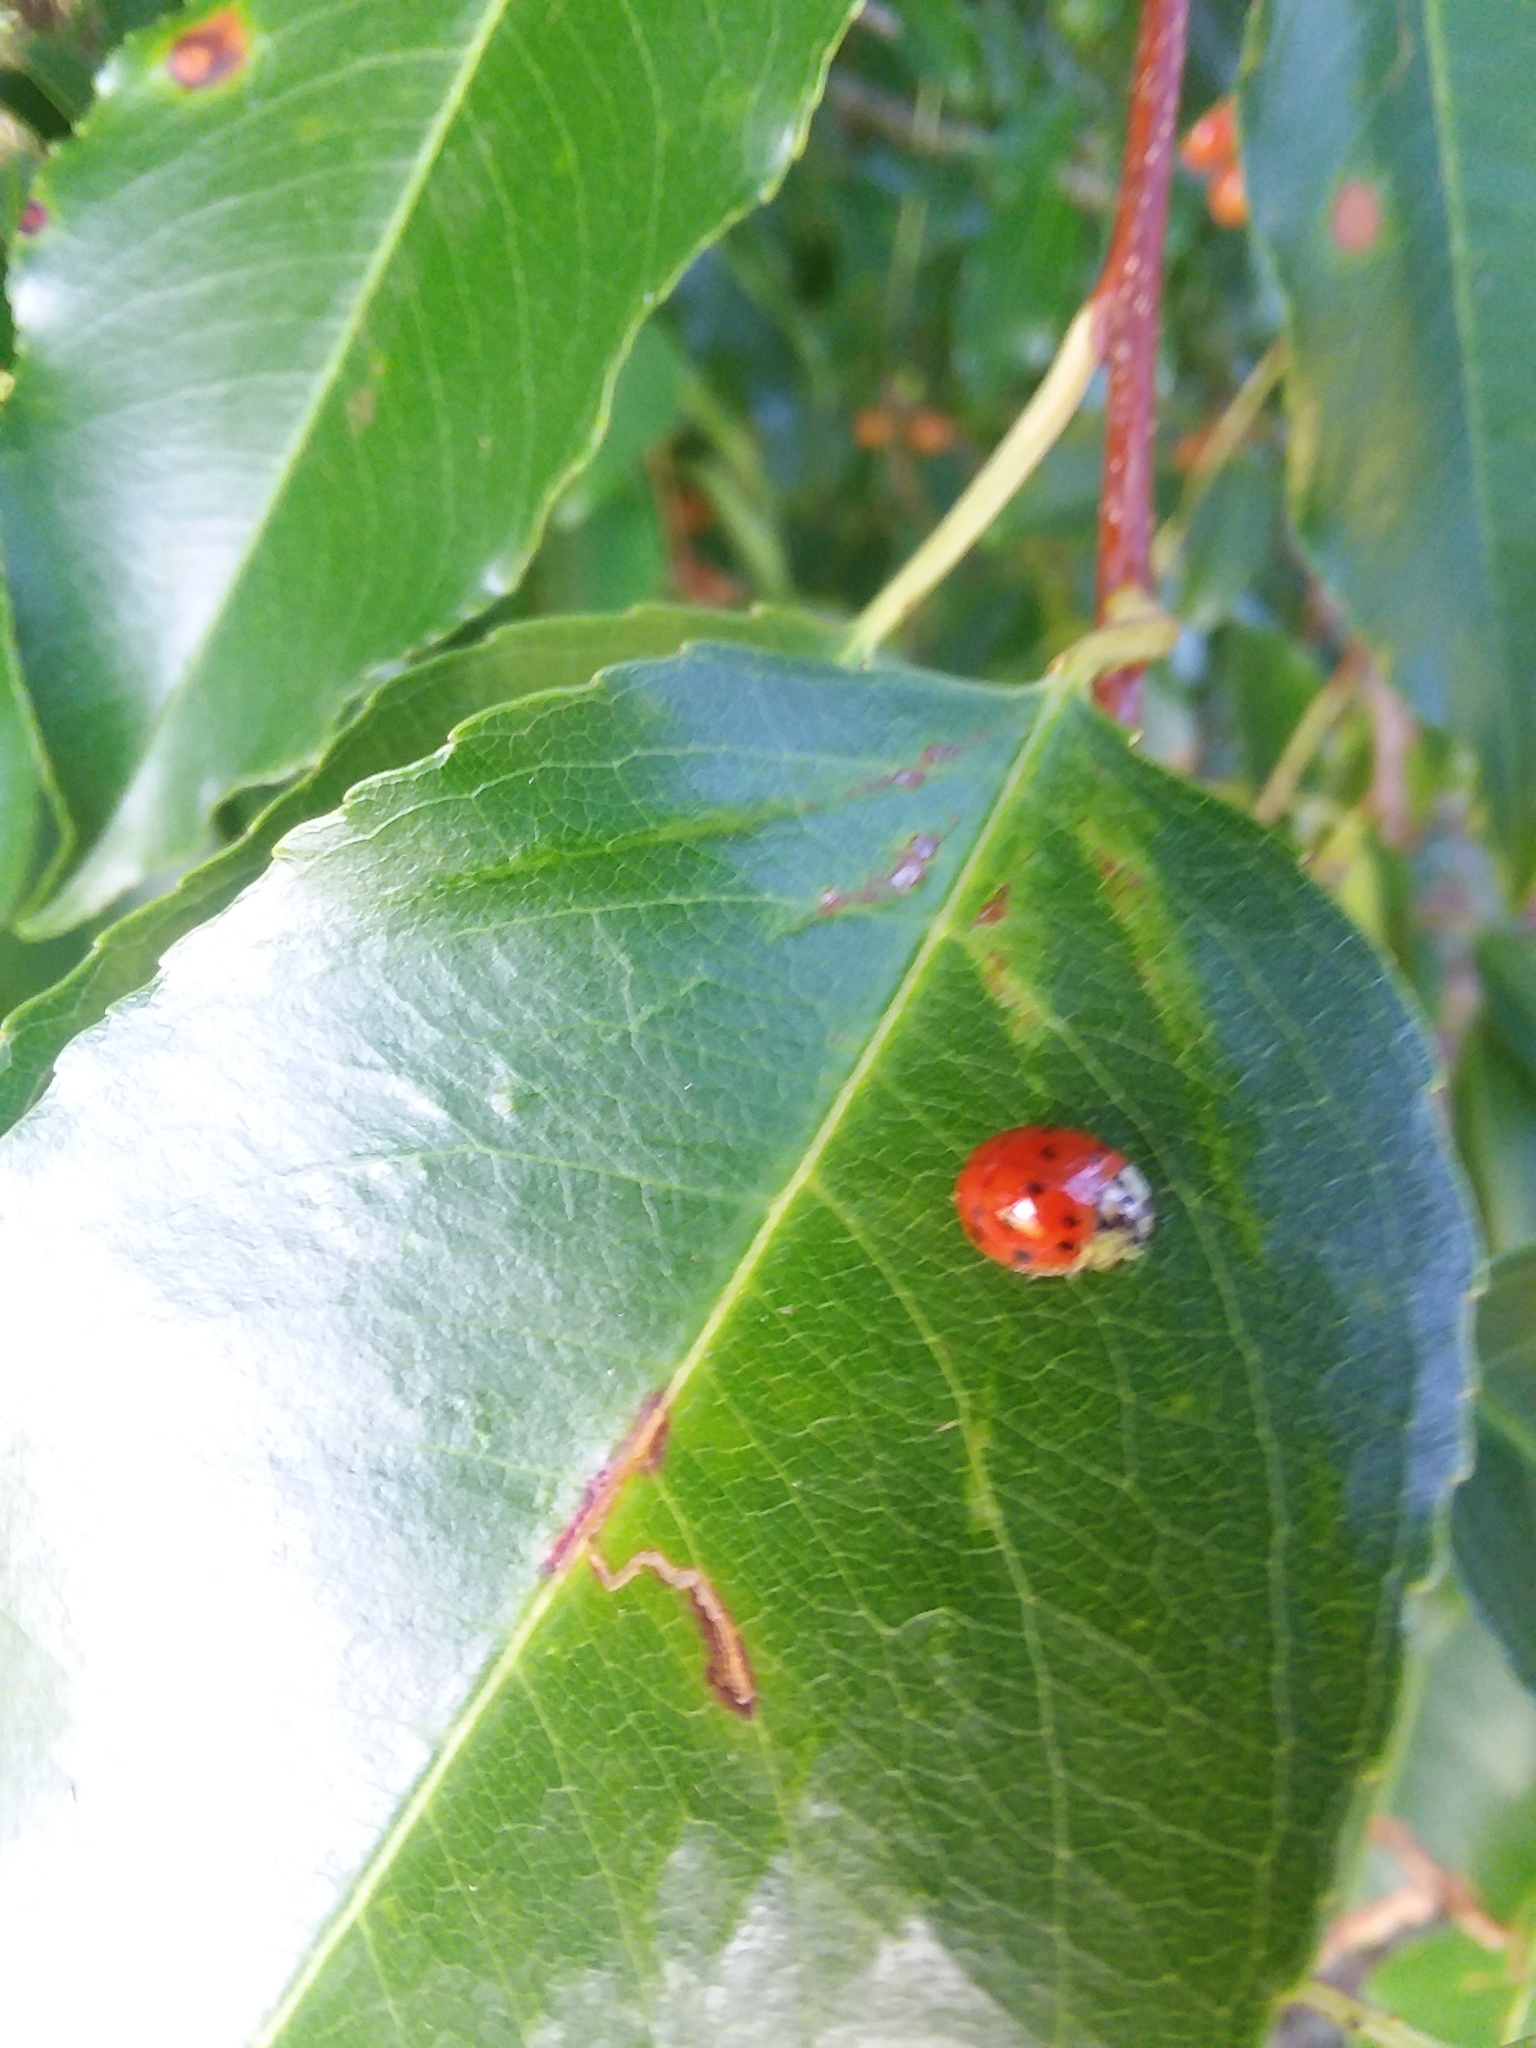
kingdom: Animalia
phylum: Arthropoda
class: Insecta
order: Coleoptera
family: Coccinellidae
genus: Harmonia
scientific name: Harmonia axyridis
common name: Harlequin ladybird
